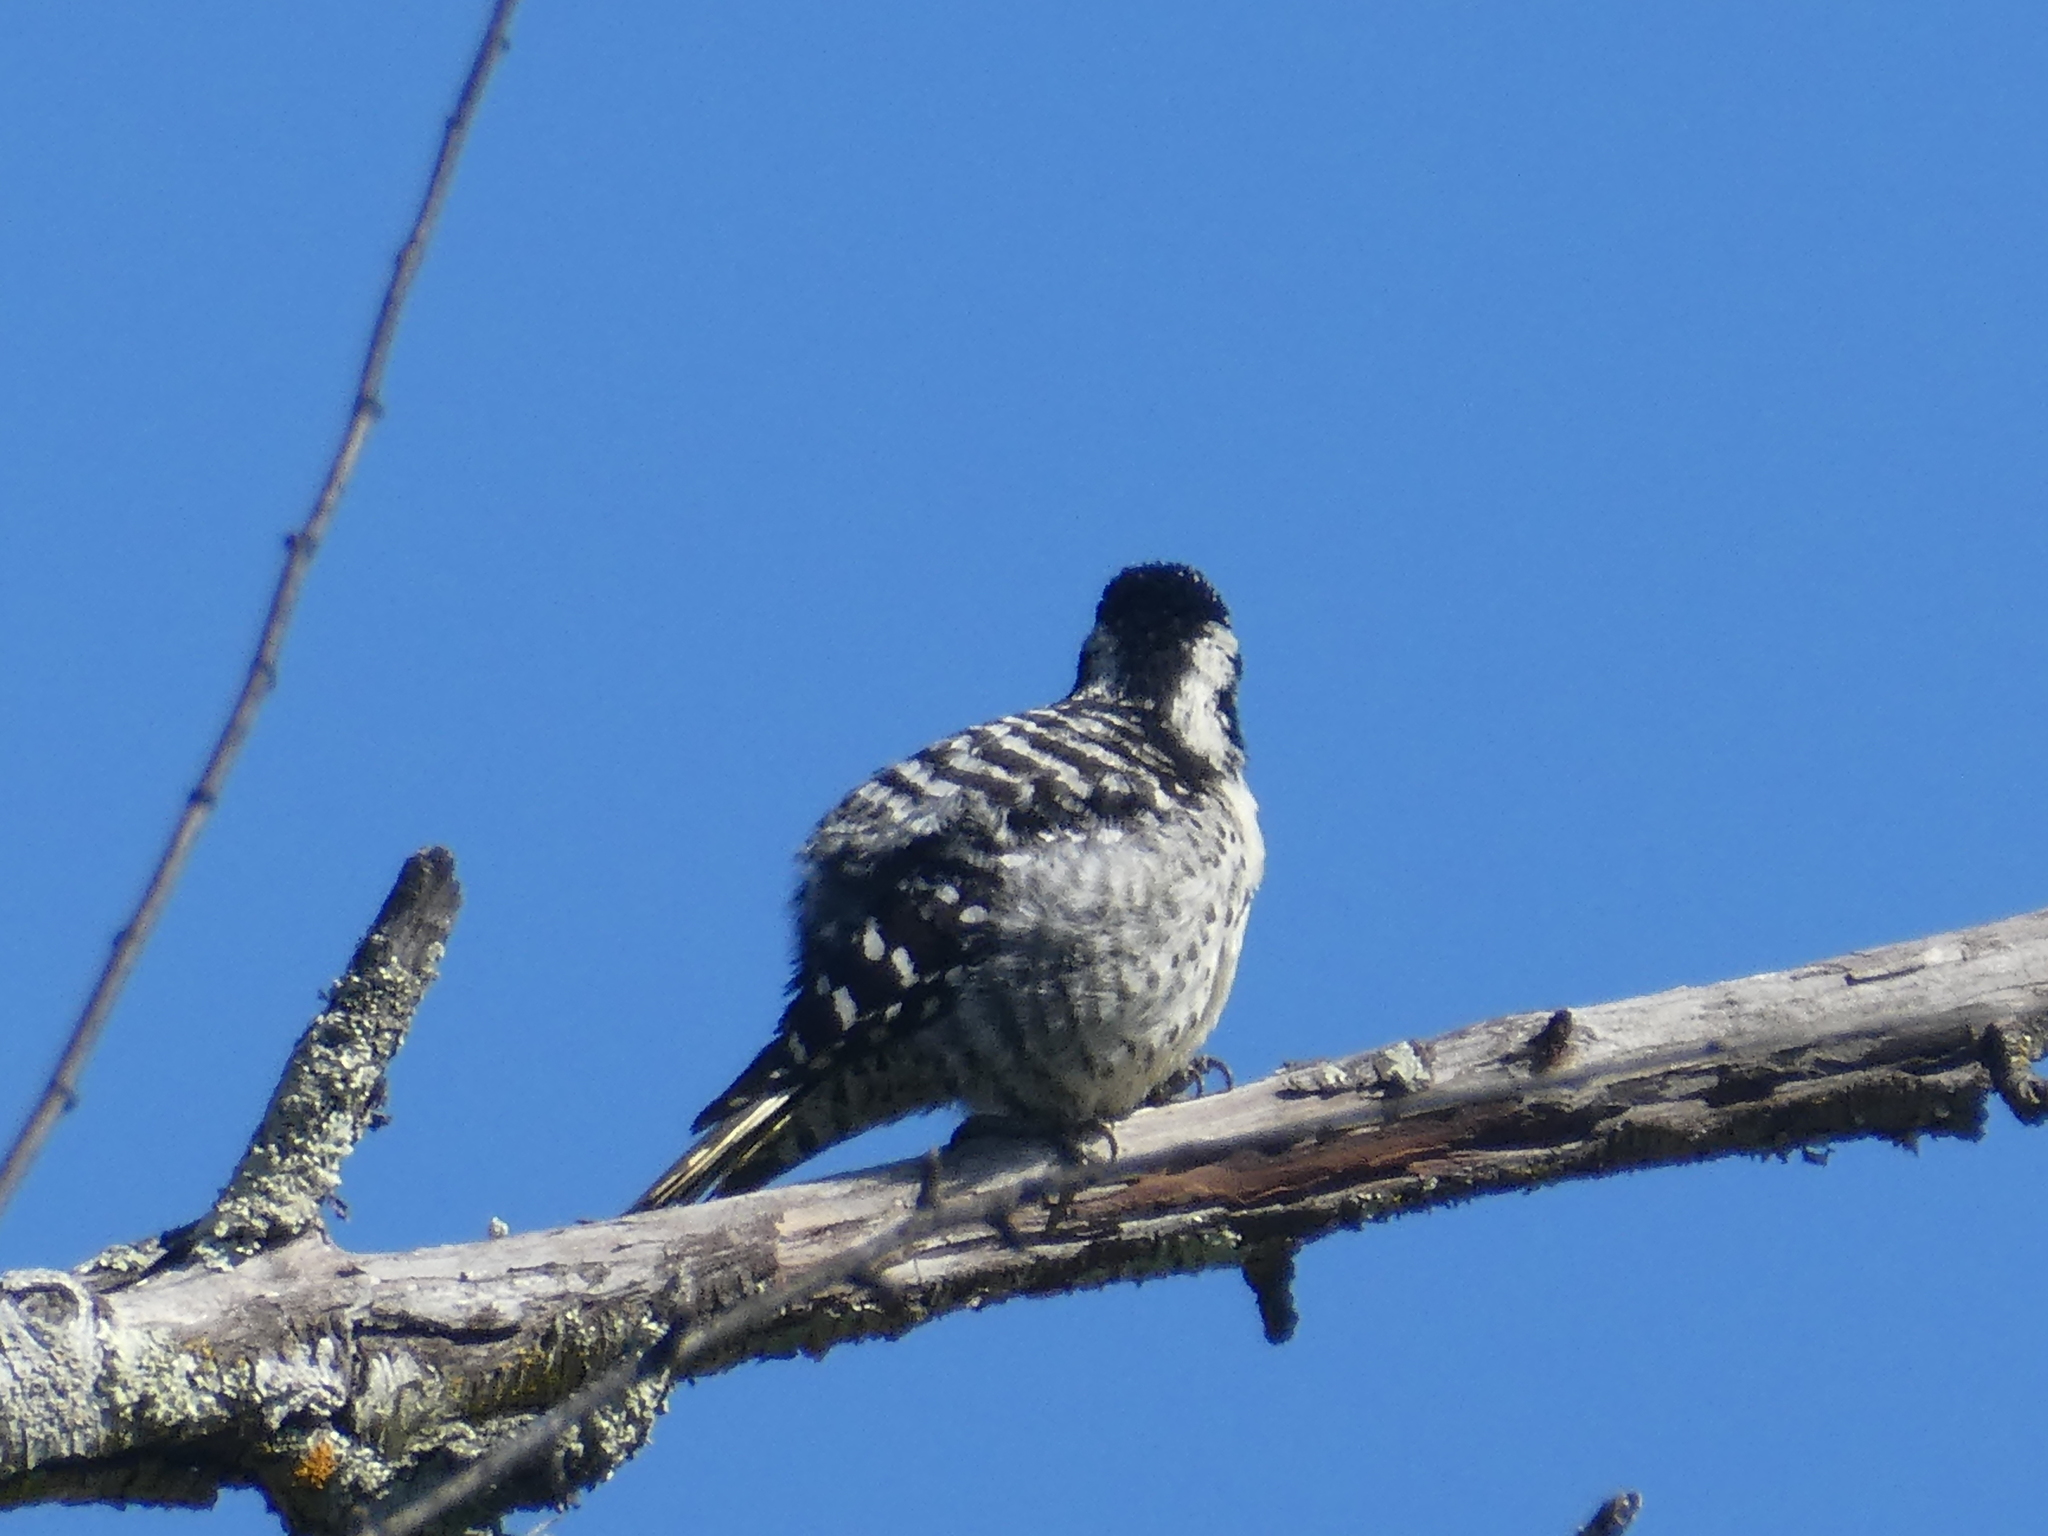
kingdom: Animalia
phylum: Chordata
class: Aves
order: Piciformes
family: Picidae
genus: Dryobates
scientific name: Dryobates nuttallii
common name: Nuttall's woodpecker
